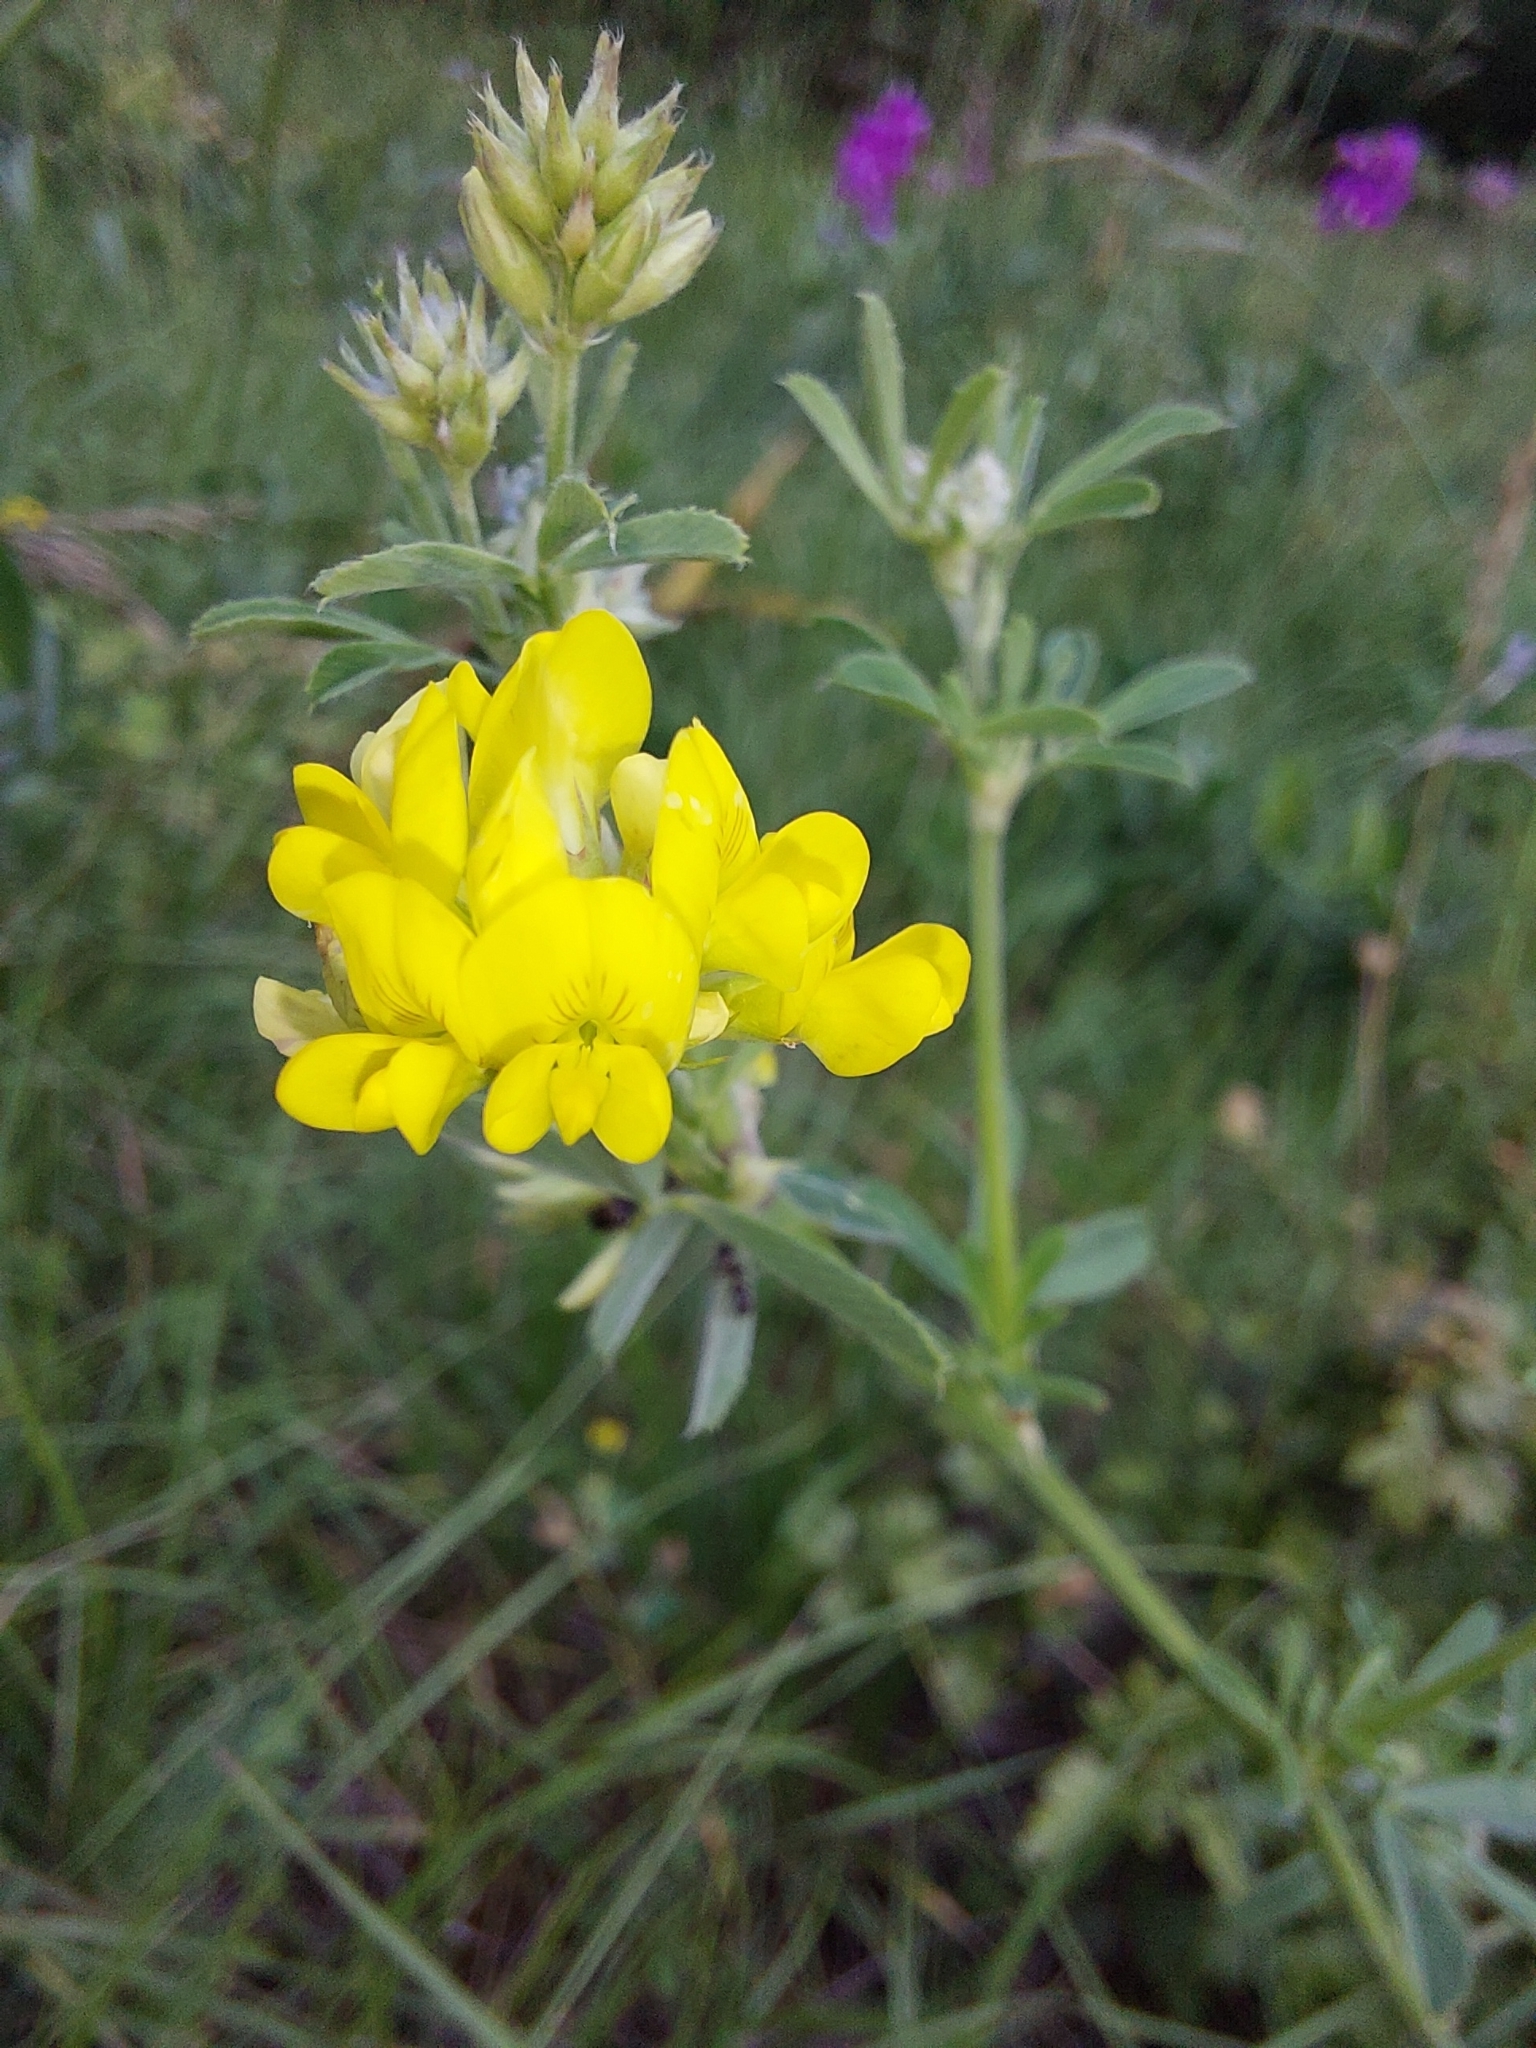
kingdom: Plantae
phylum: Tracheophyta
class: Magnoliopsida
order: Fabales
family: Fabaceae
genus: Medicago
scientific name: Medicago falcata
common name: Sickle medick
